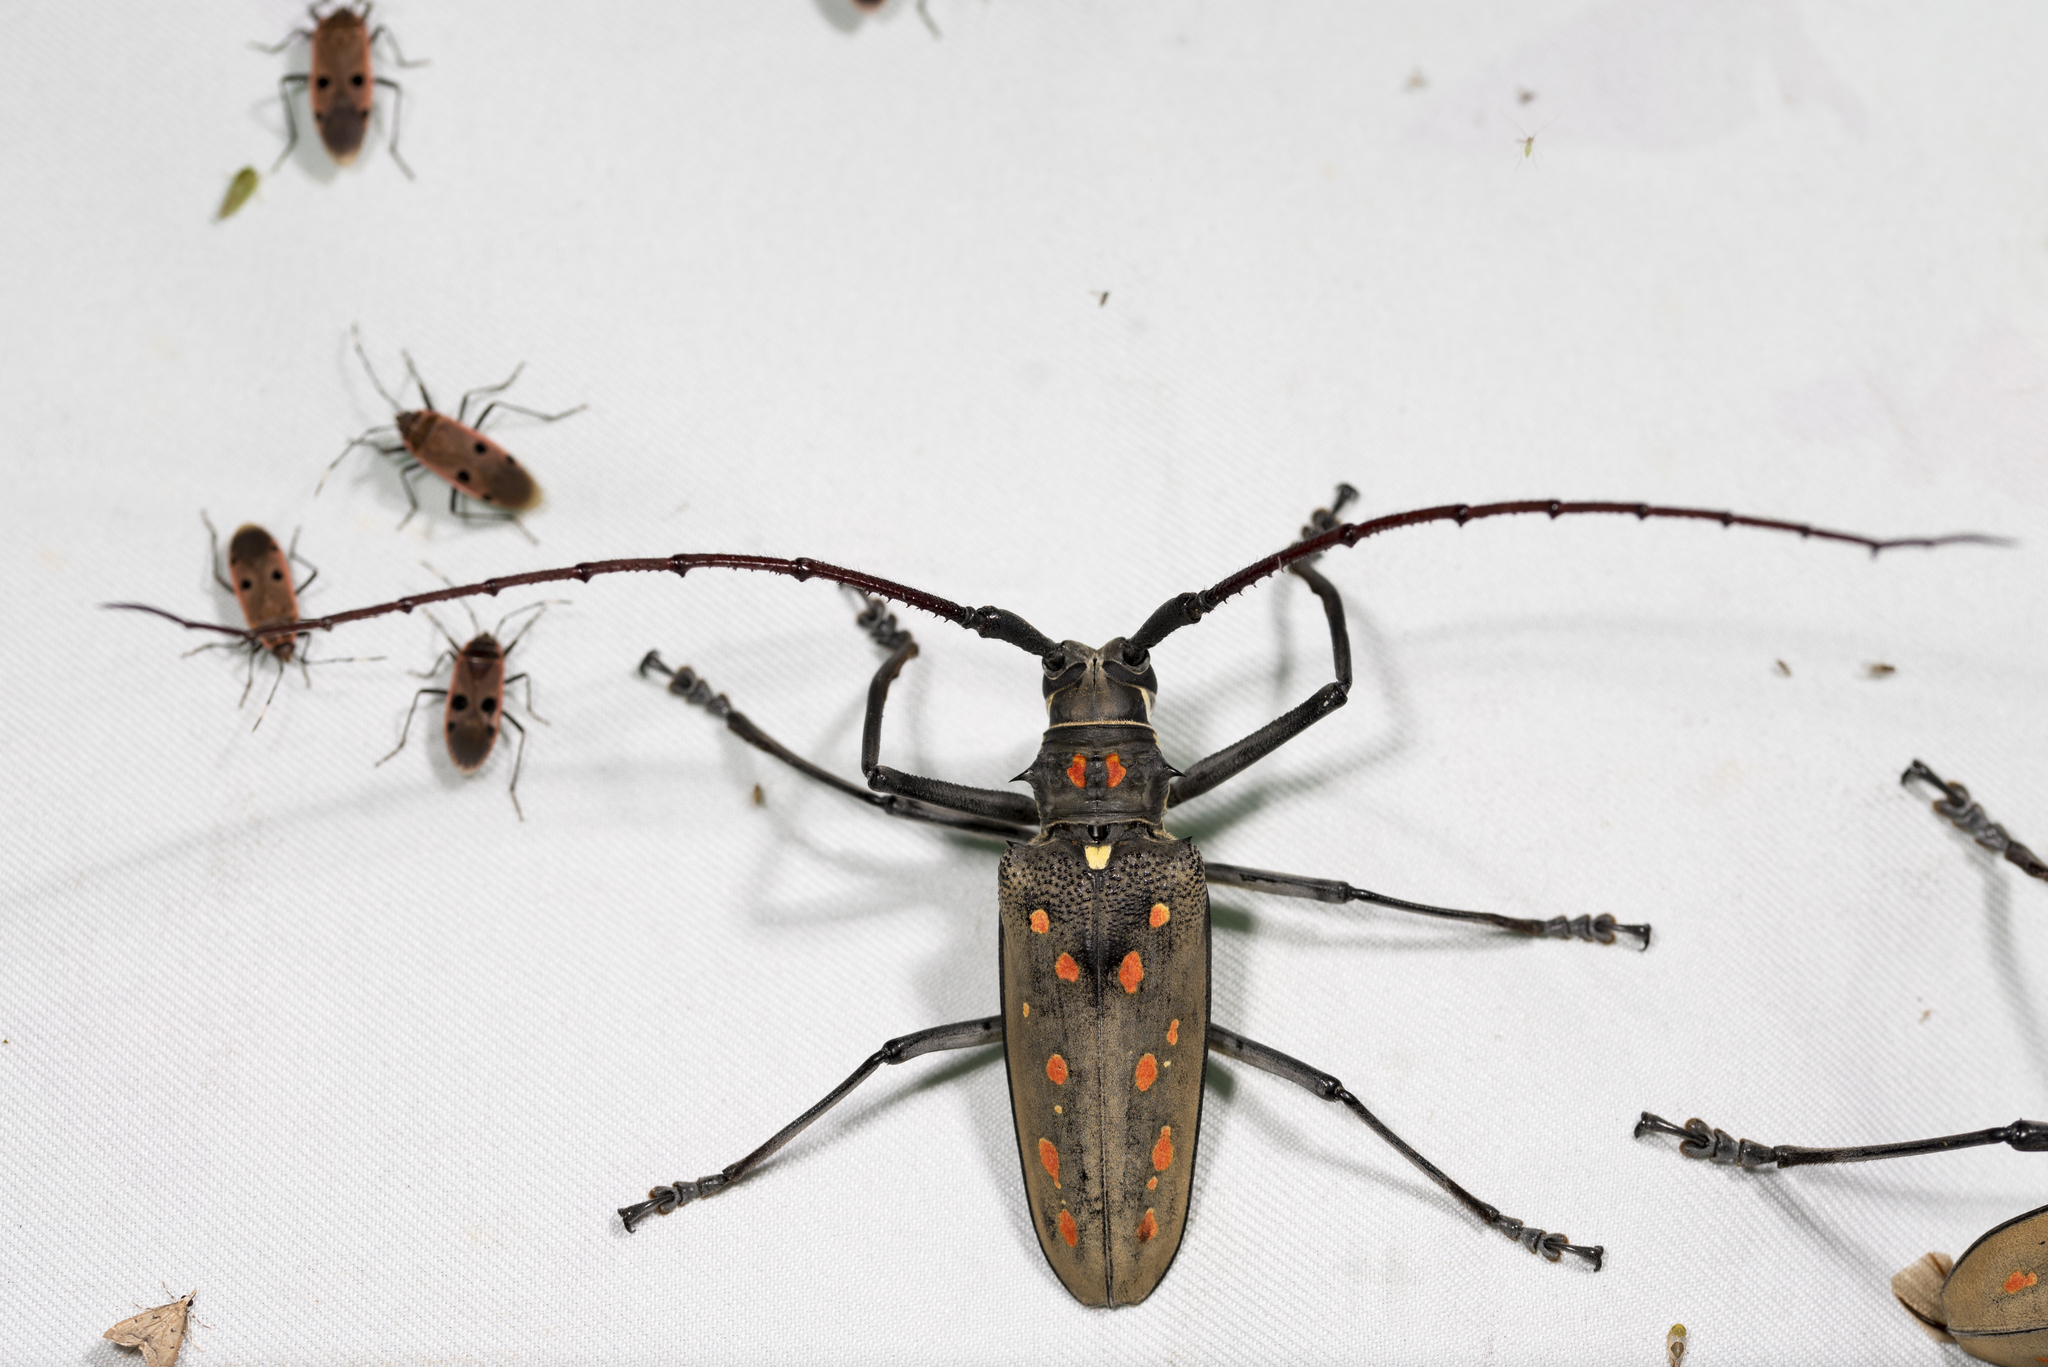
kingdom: Animalia
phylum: Arthropoda
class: Insecta
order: Coleoptera
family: Cerambycidae
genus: Batocera
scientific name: Batocera davidis
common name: Long-horned beetle
